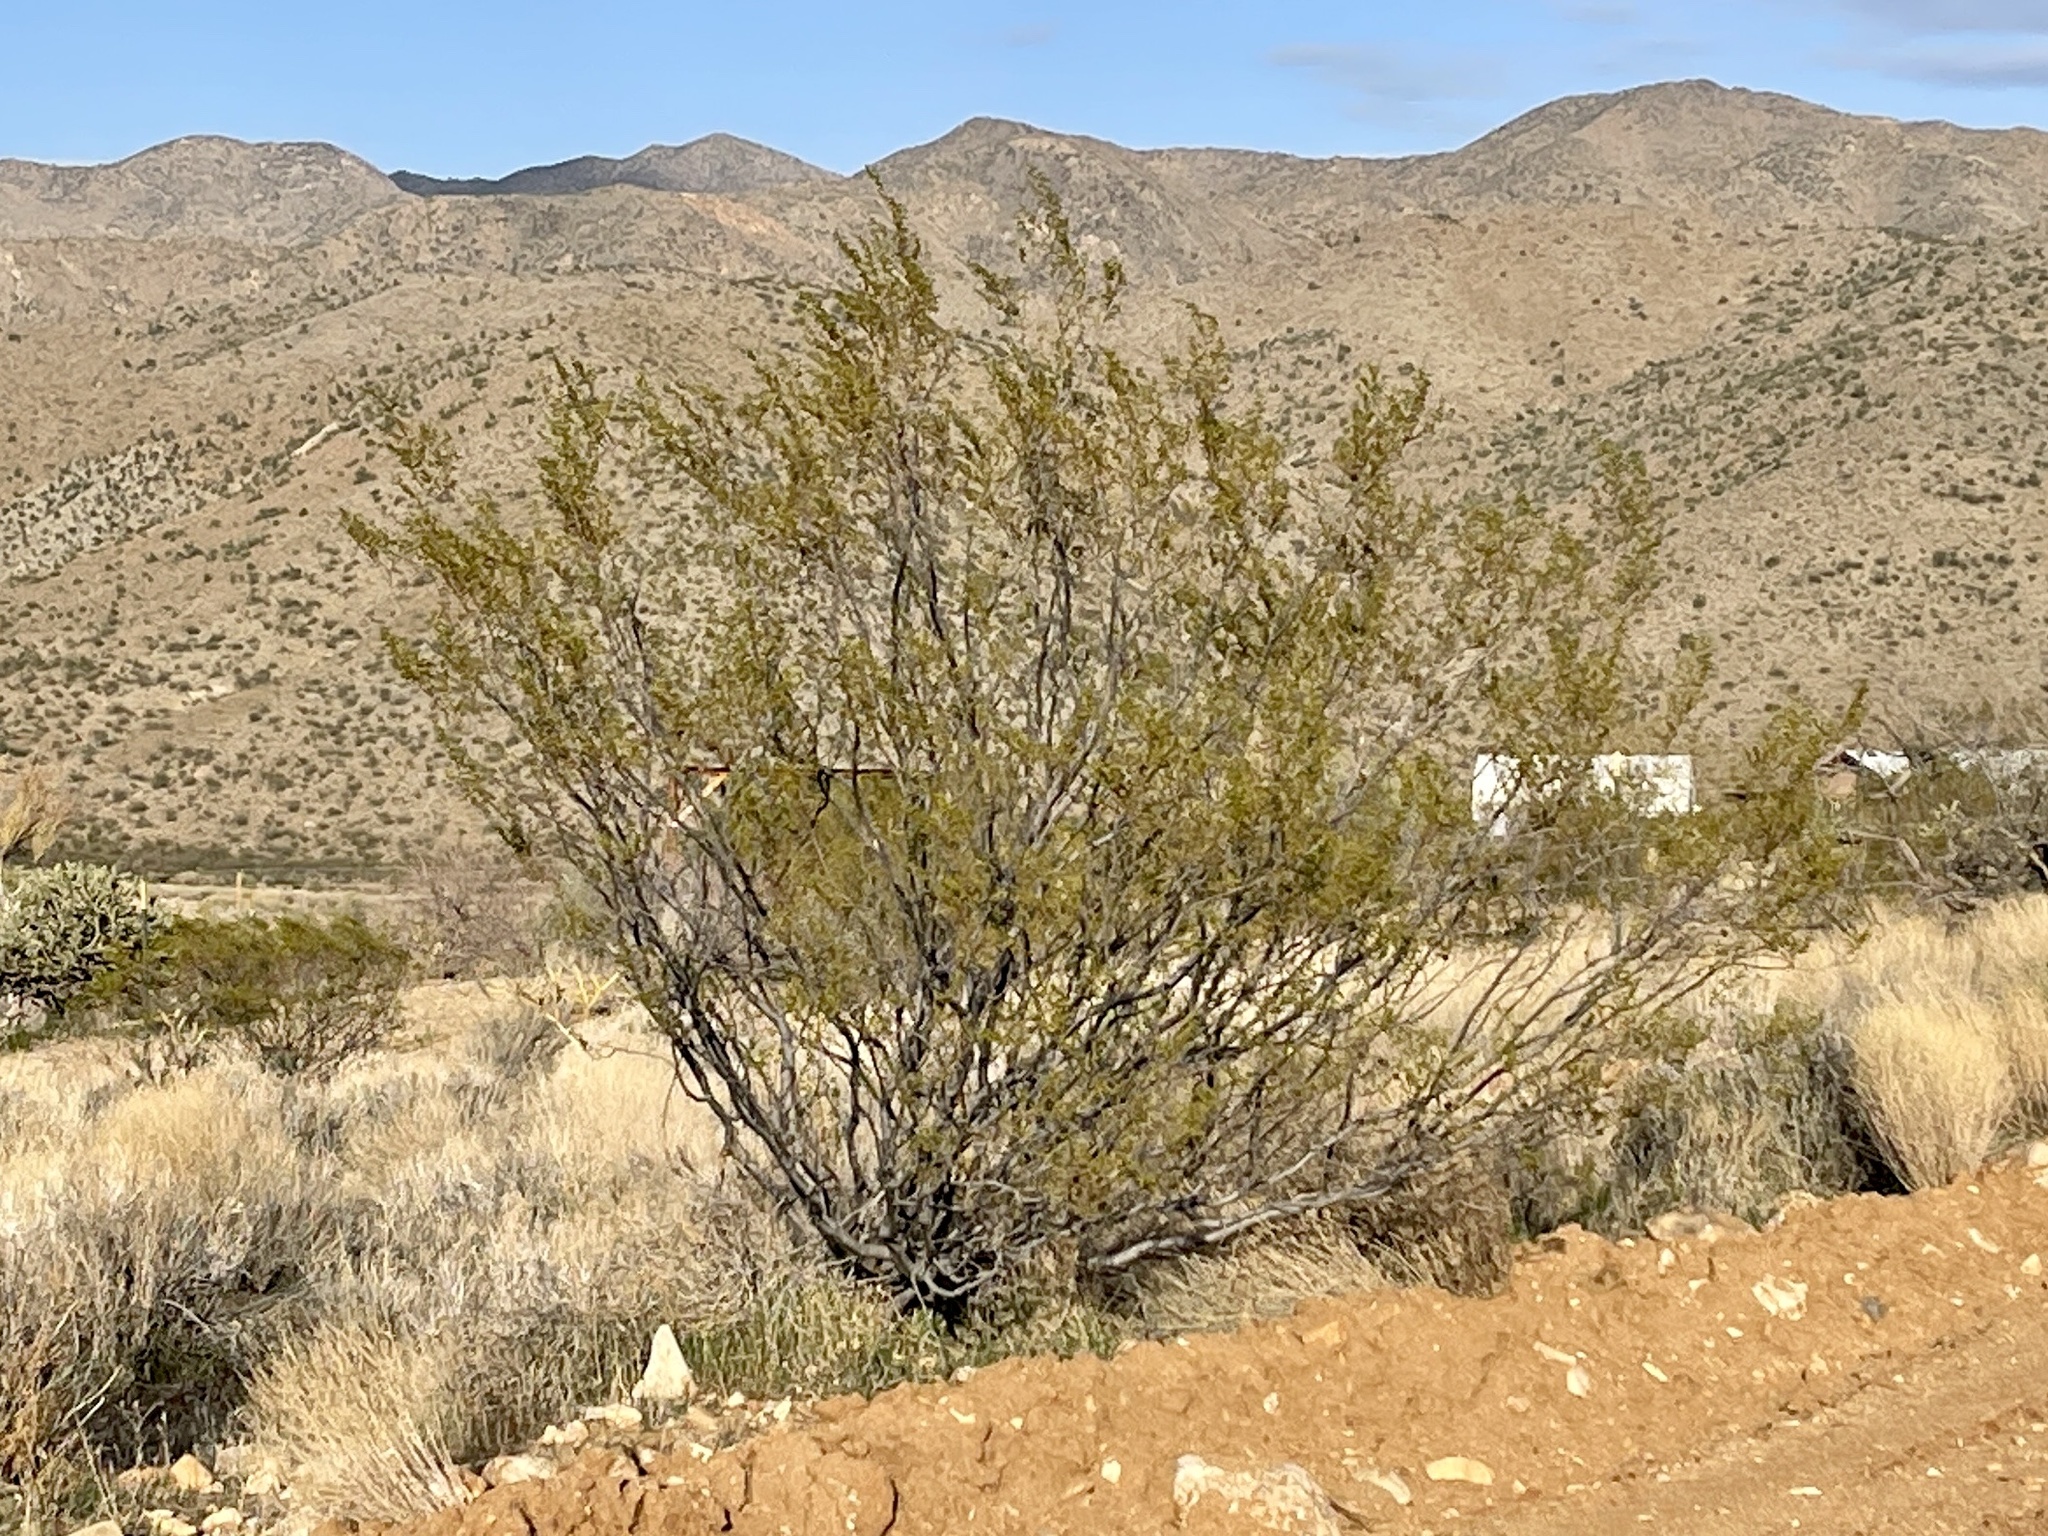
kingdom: Plantae
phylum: Tracheophyta
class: Magnoliopsida
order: Zygophyllales
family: Zygophyllaceae
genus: Larrea
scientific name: Larrea tridentata
